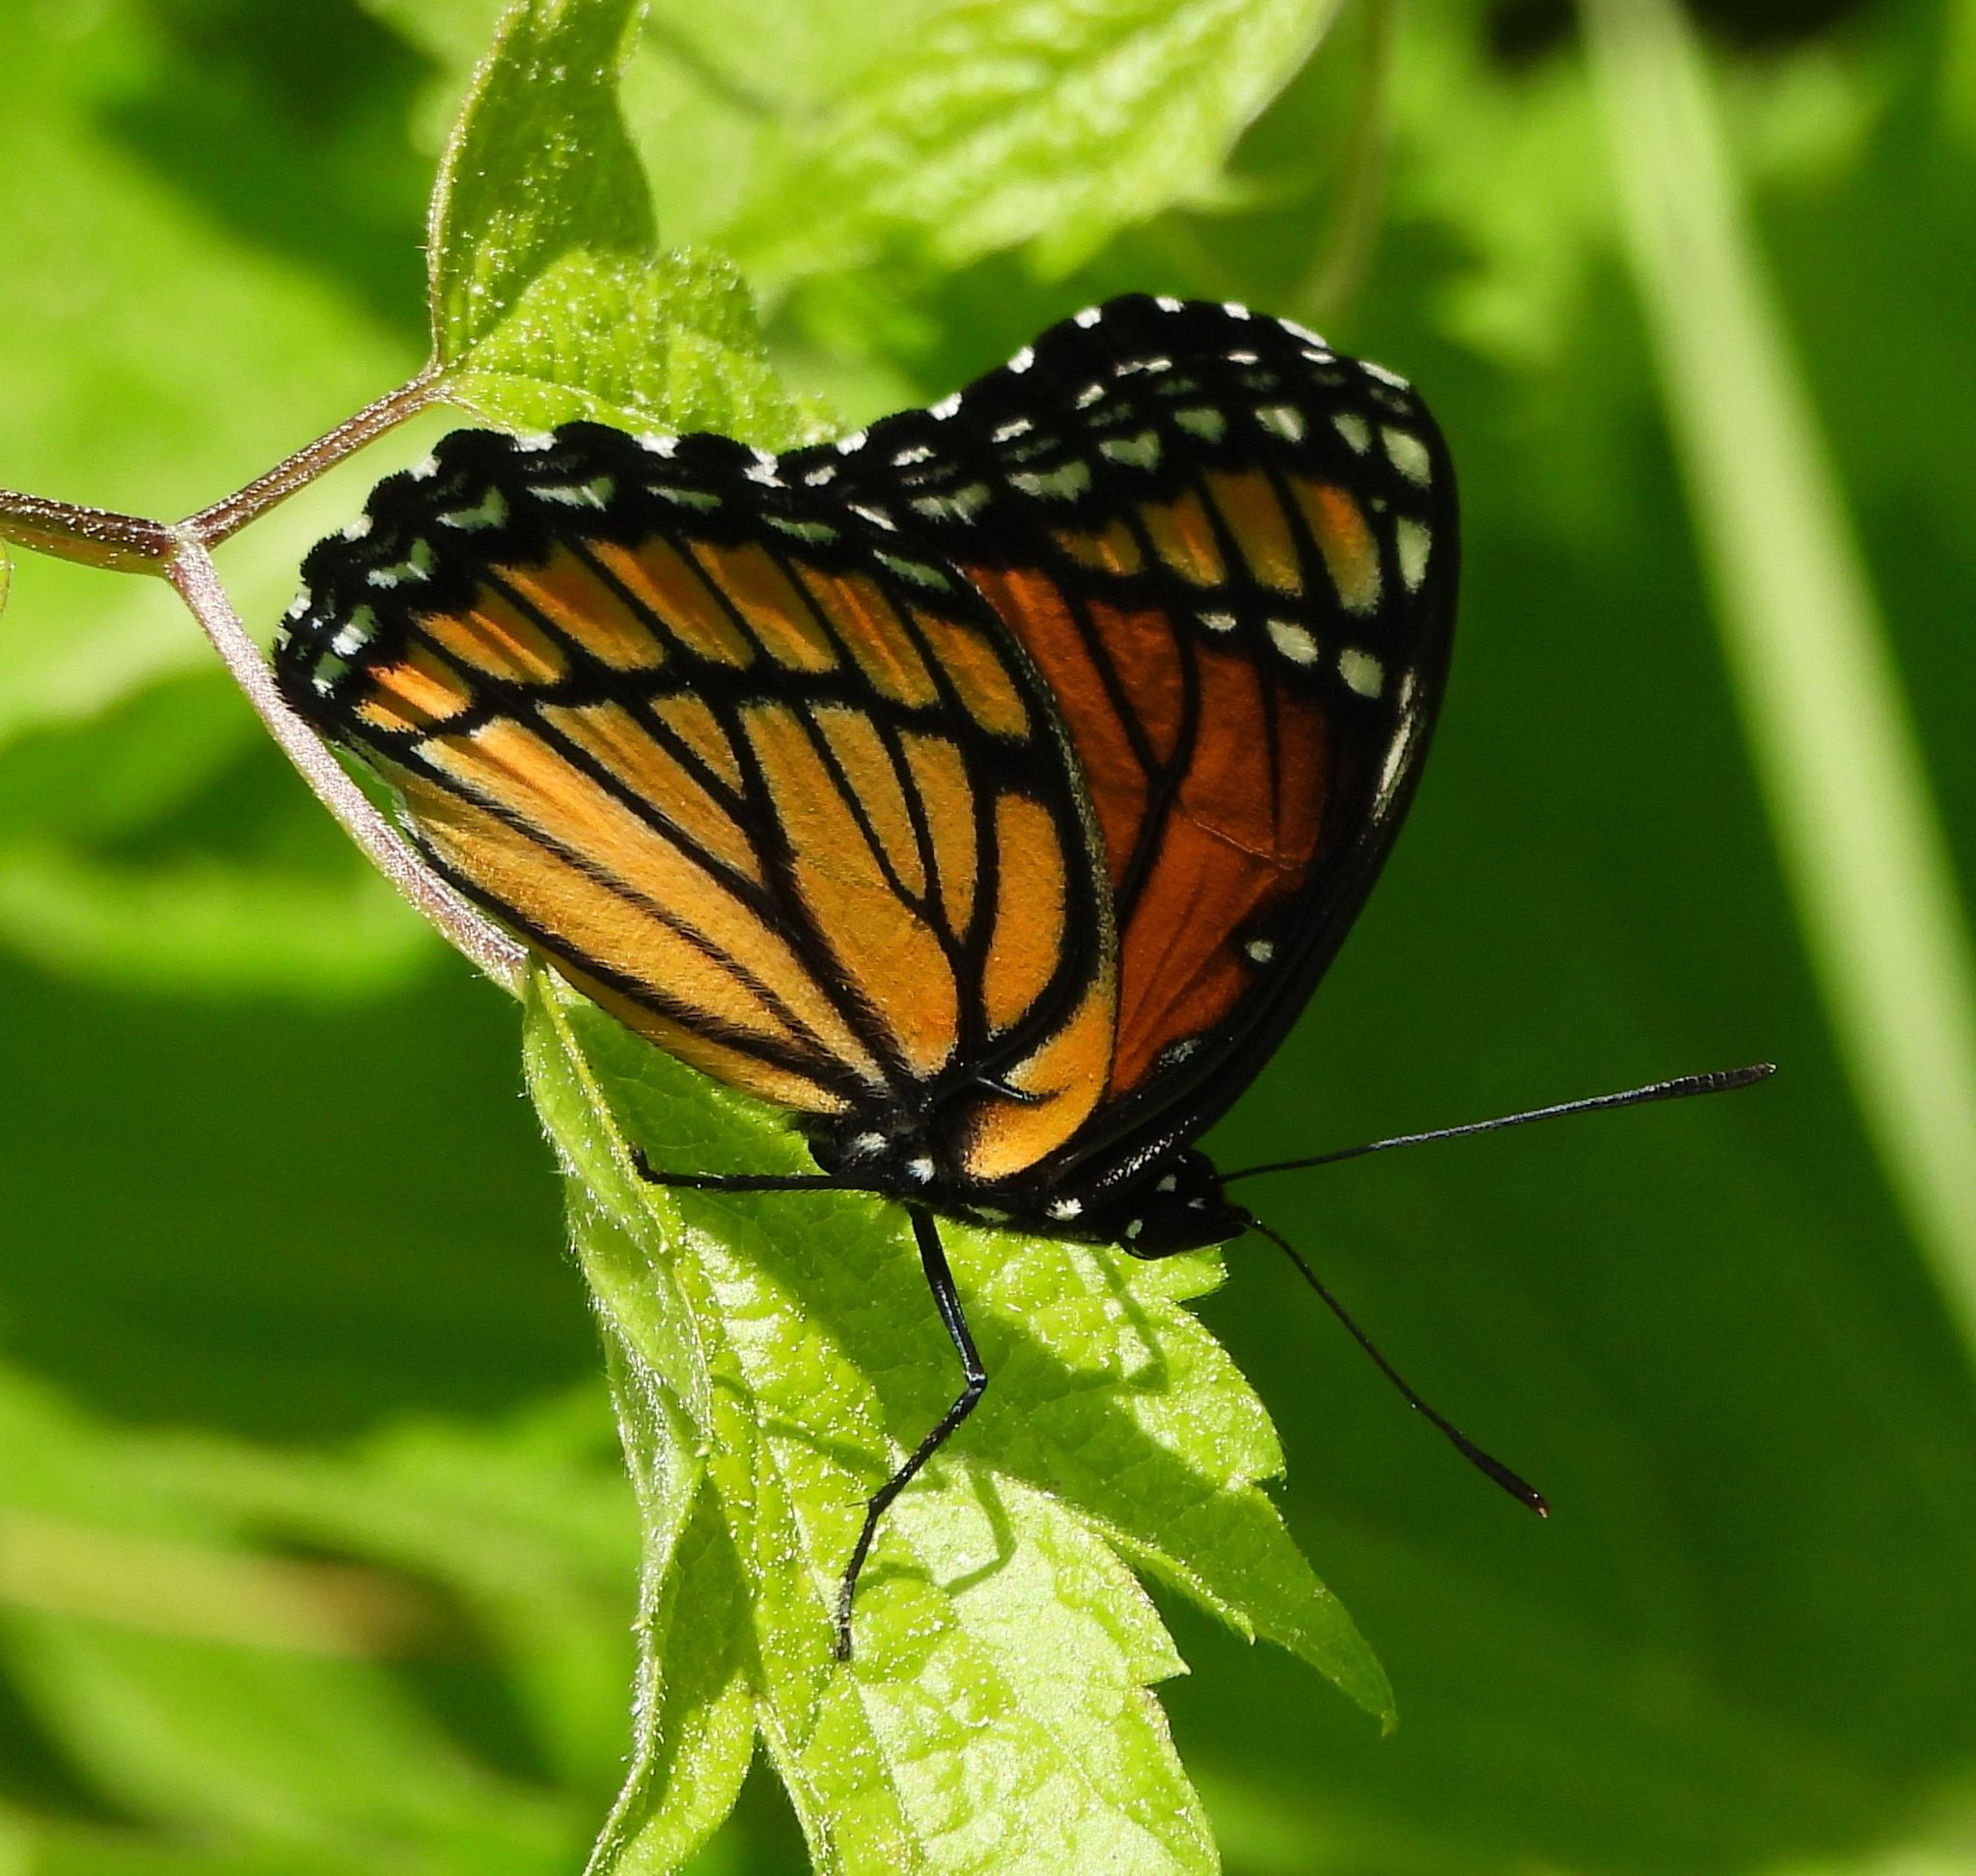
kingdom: Animalia
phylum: Arthropoda
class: Insecta
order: Lepidoptera
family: Nymphalidae
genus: Limenitis
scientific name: Limenitis archippus
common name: Viceroy
